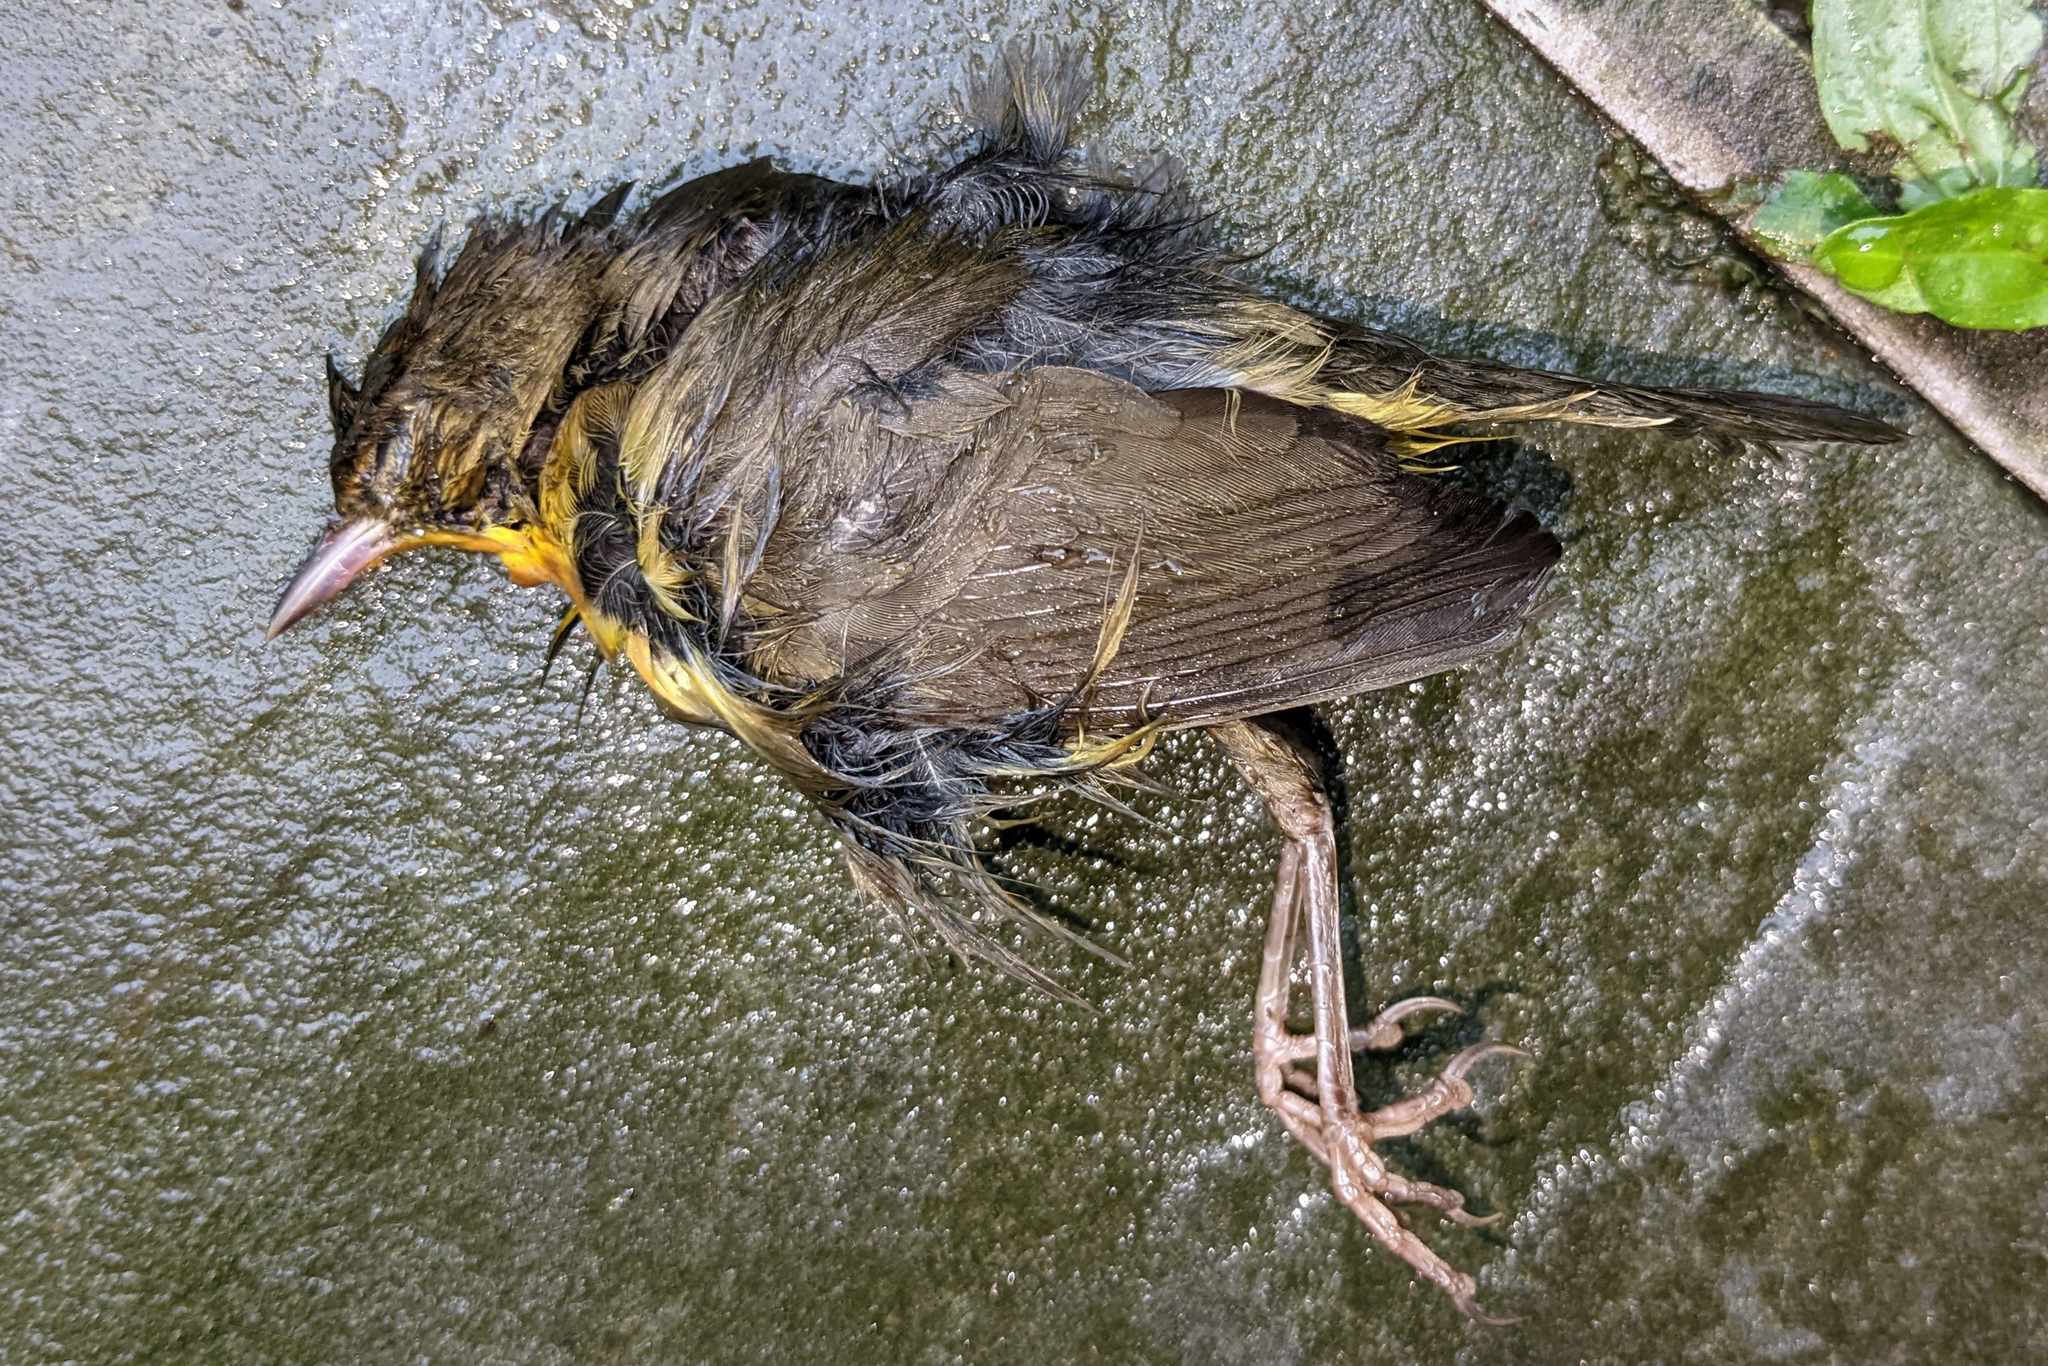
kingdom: Animalia
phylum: Chordata
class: Aves
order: Passeriformes
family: Parulidae
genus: Geothlypis
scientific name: Geothlypis trichas
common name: Common yellowthroat
